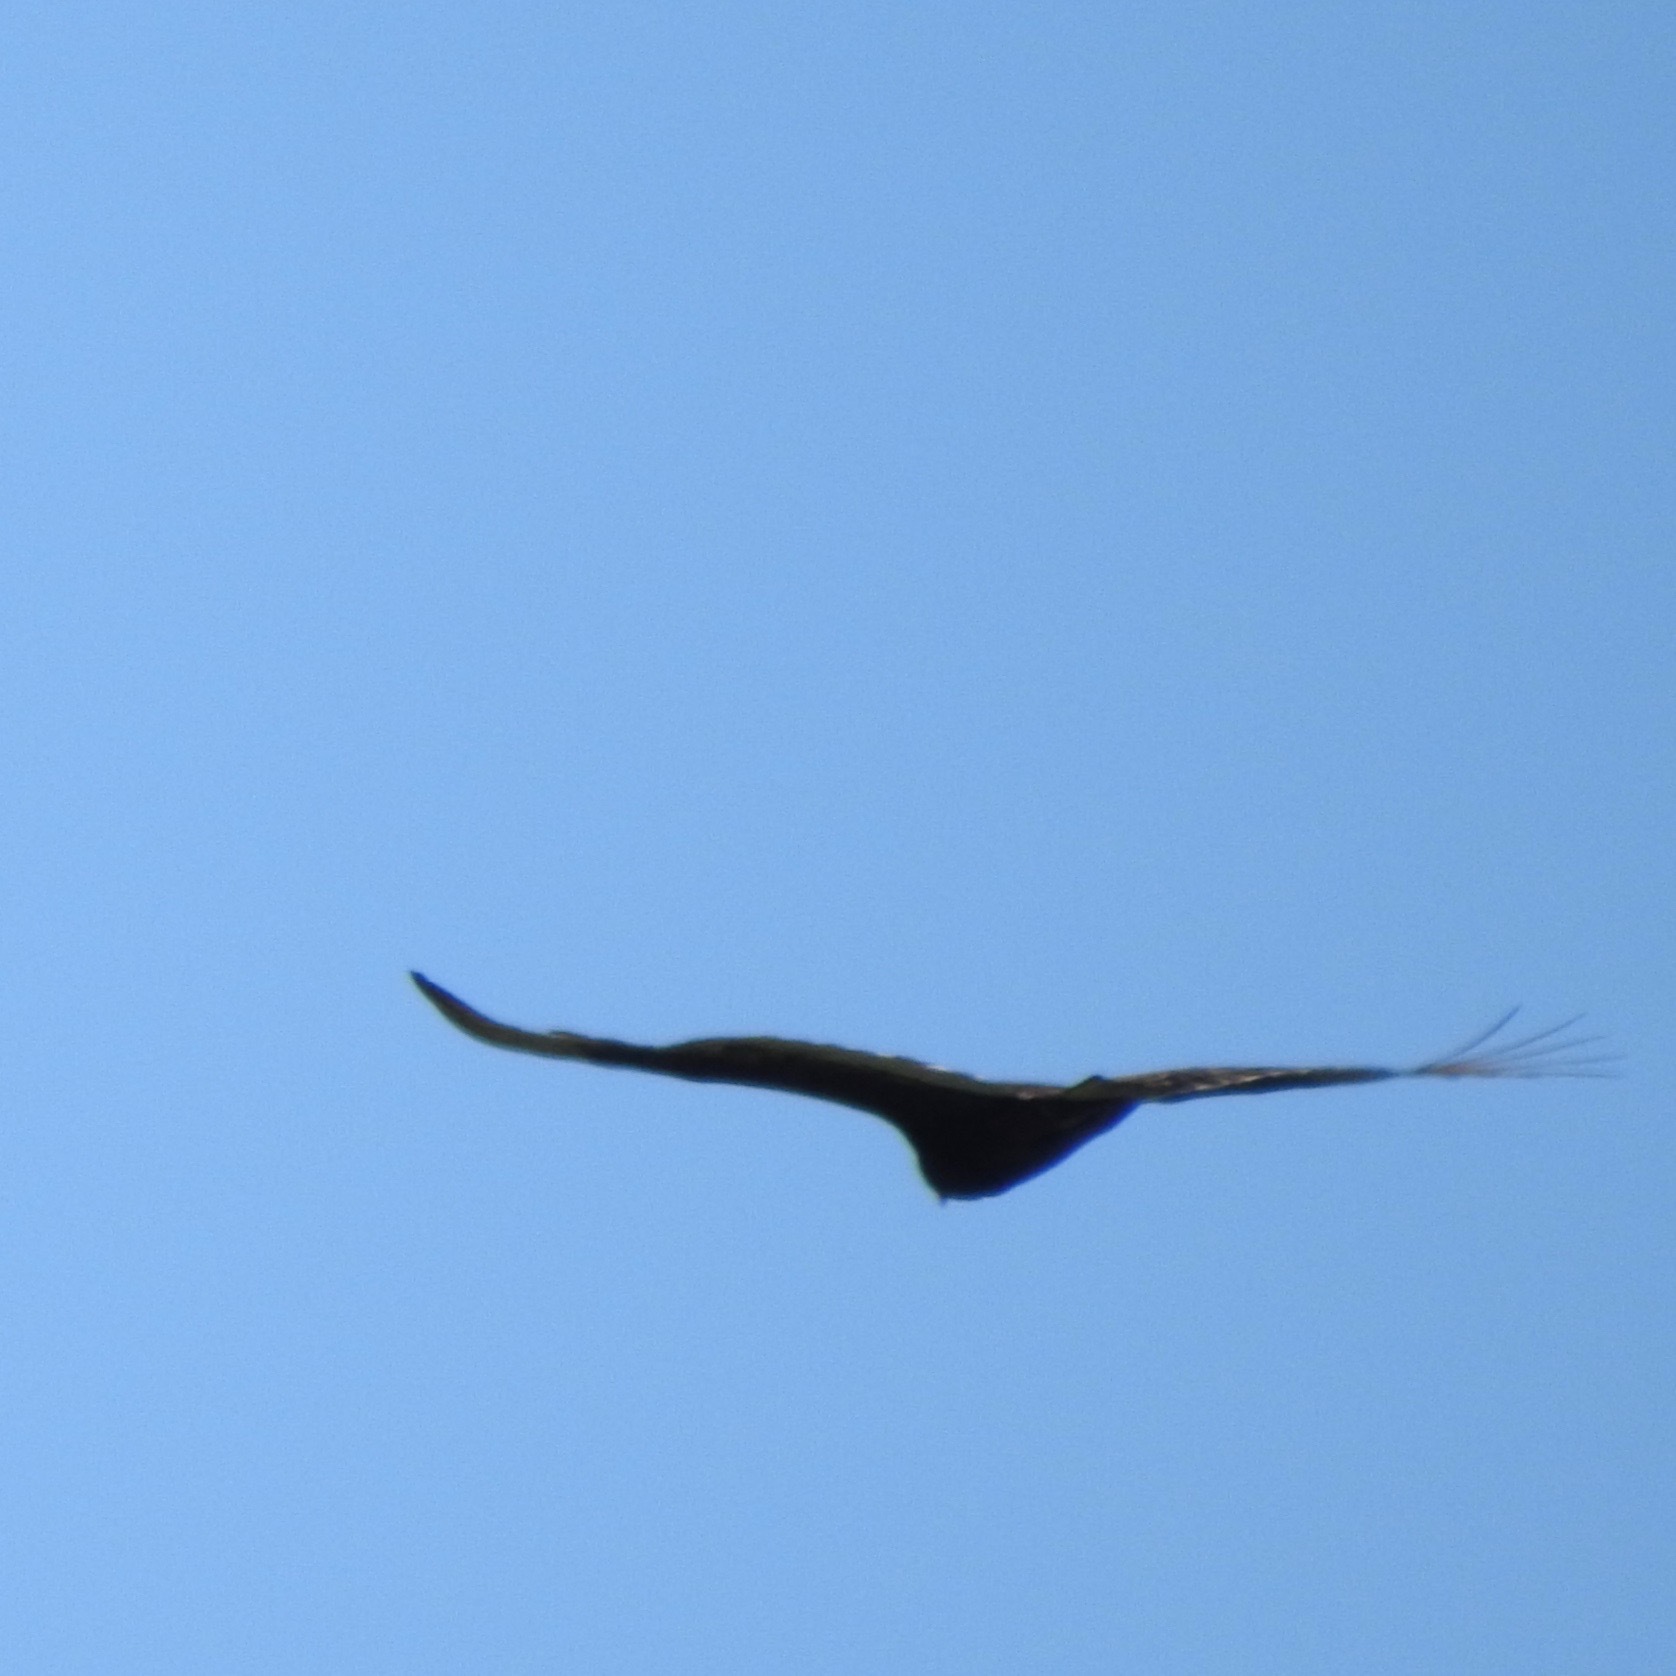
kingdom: Animalia
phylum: Chordata
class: Aves
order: Accipitriformes
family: Cathartidae
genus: Cathartes
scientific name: Cathartes aura
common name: Turkey vulture
